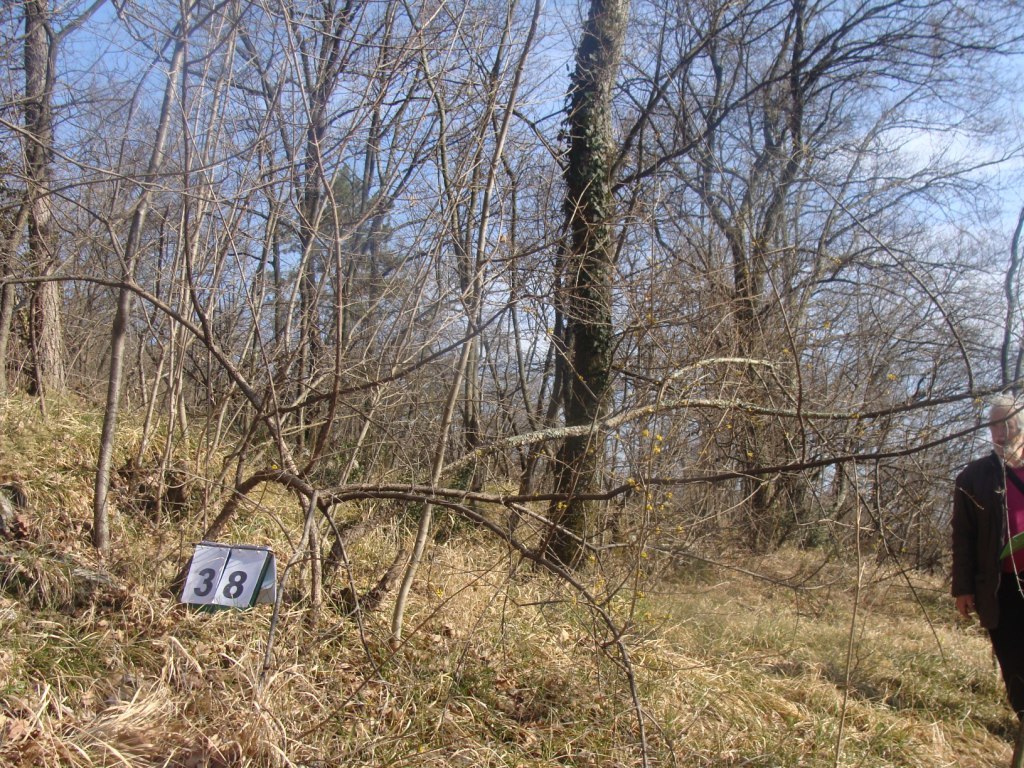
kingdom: Plantae
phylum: Tracheophyta
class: Magnoliopsida
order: Cornales
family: Cornaceae
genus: Cornus
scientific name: Cornus mas
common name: Cornelian-cherry
